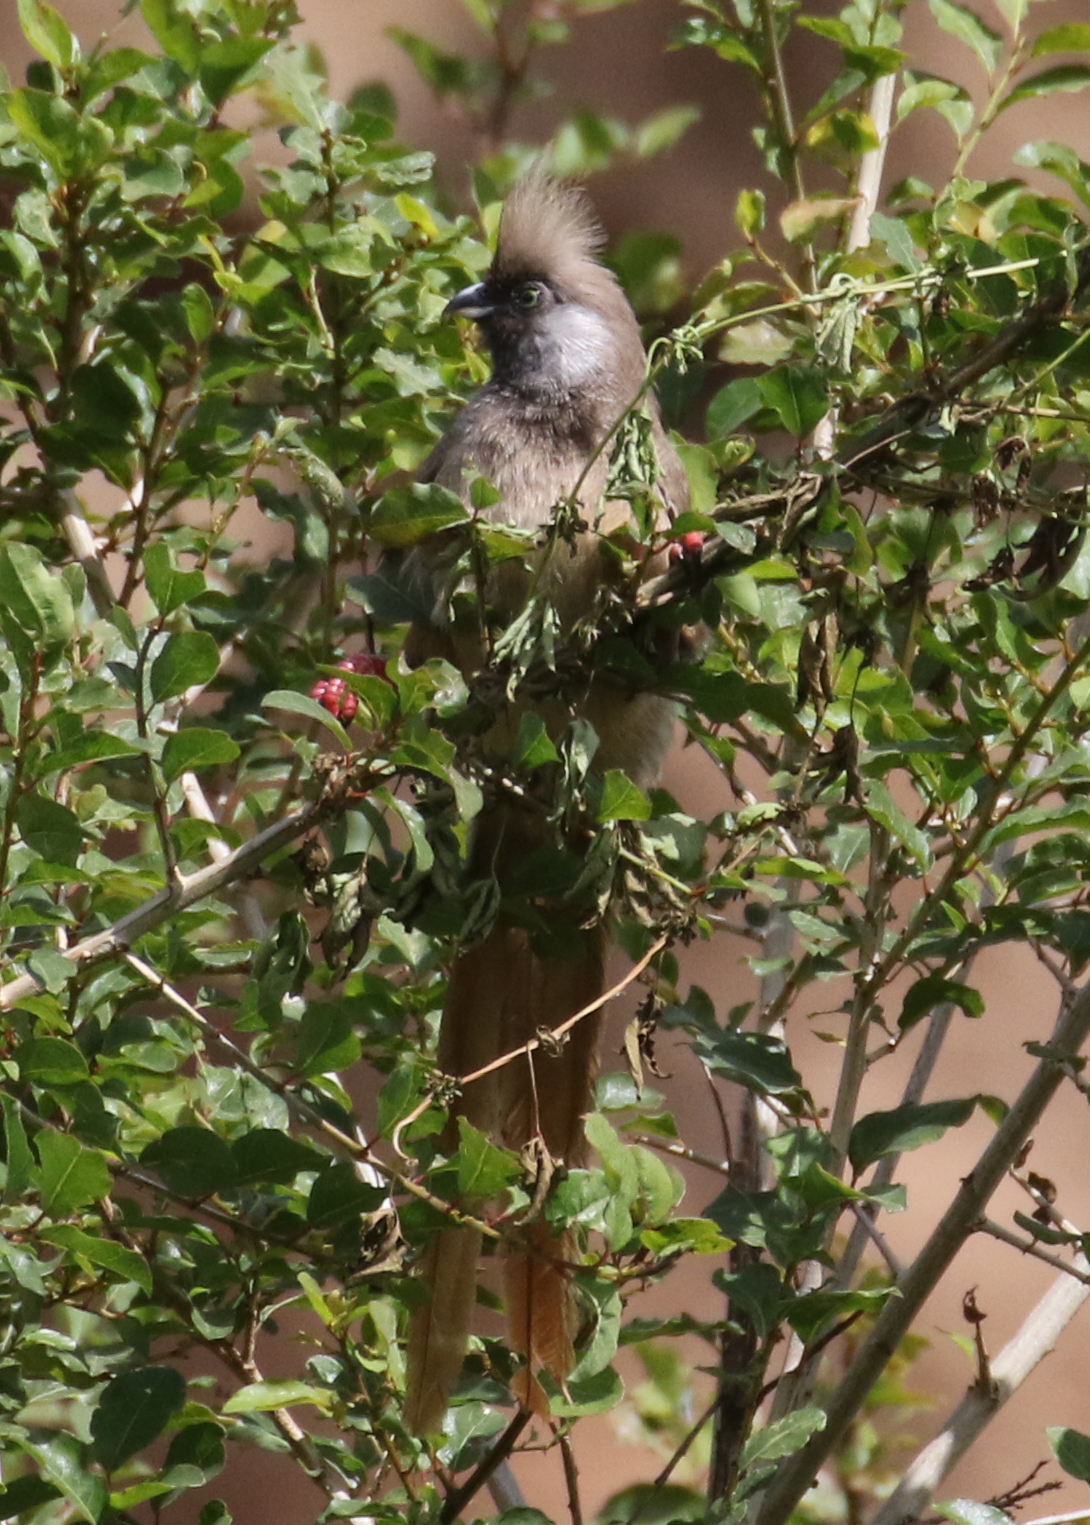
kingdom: Animalia
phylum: Chordata
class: Aves
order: Coliiformes
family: Coliidae
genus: Colius
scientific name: Colius striatus
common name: Speckled mousebird
